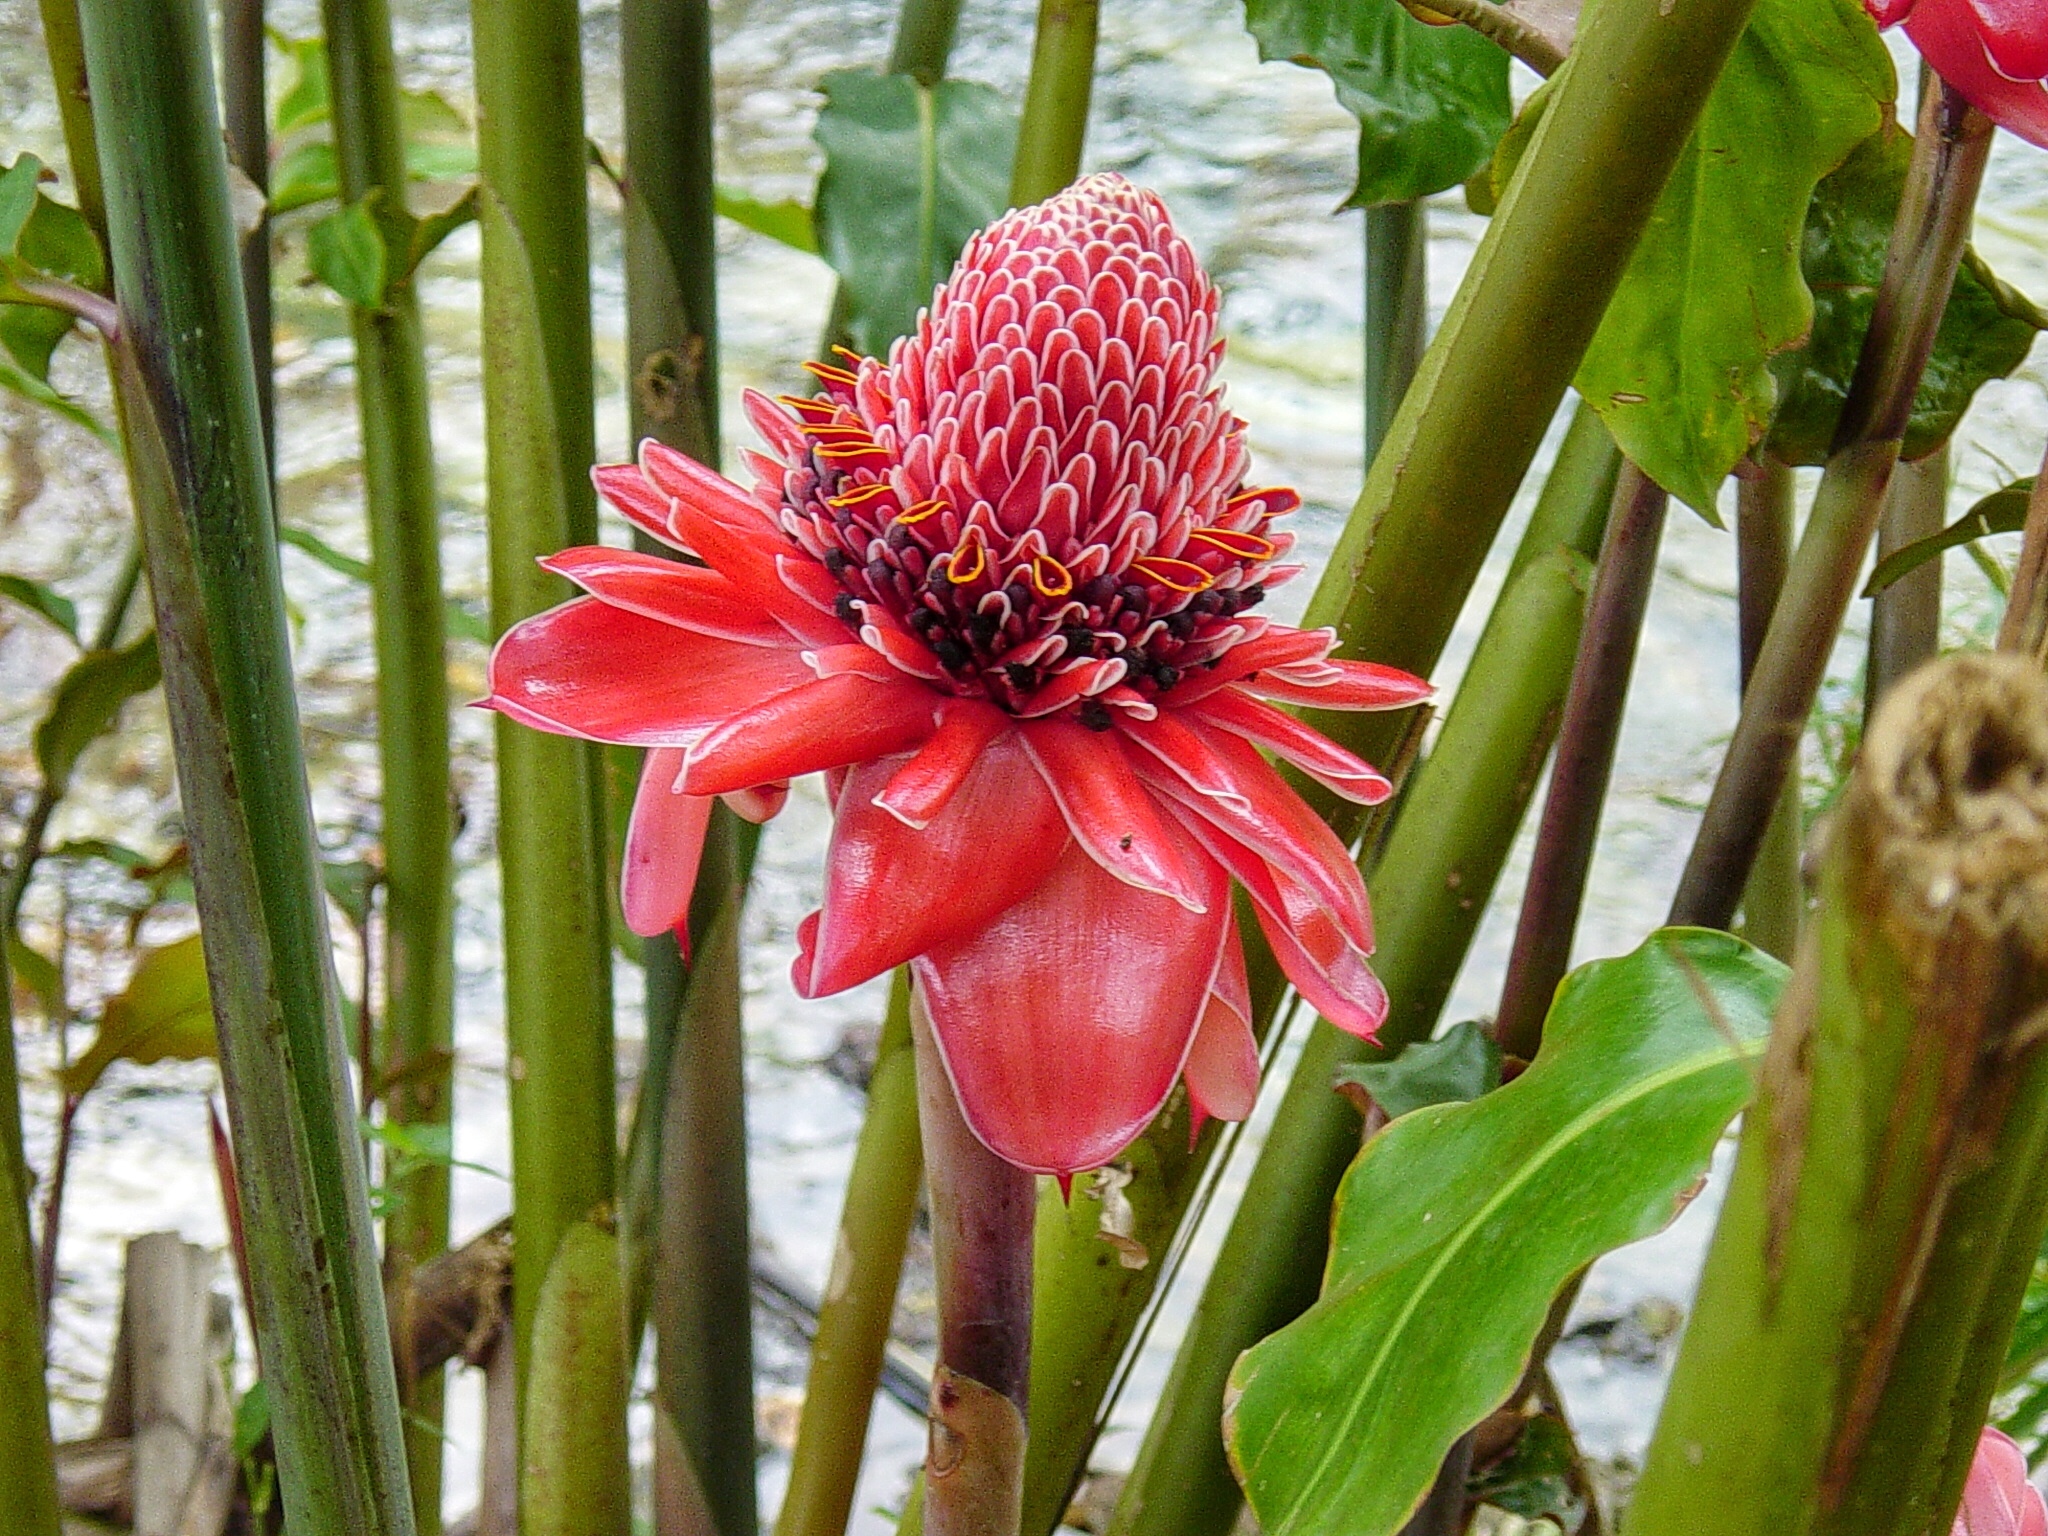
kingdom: Plantae
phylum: Tracheophyta
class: Liliopsida
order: Zingiberales
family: Zingiberaceae
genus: Etlingera
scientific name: Etlingera elatior
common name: Philippine waxflower
